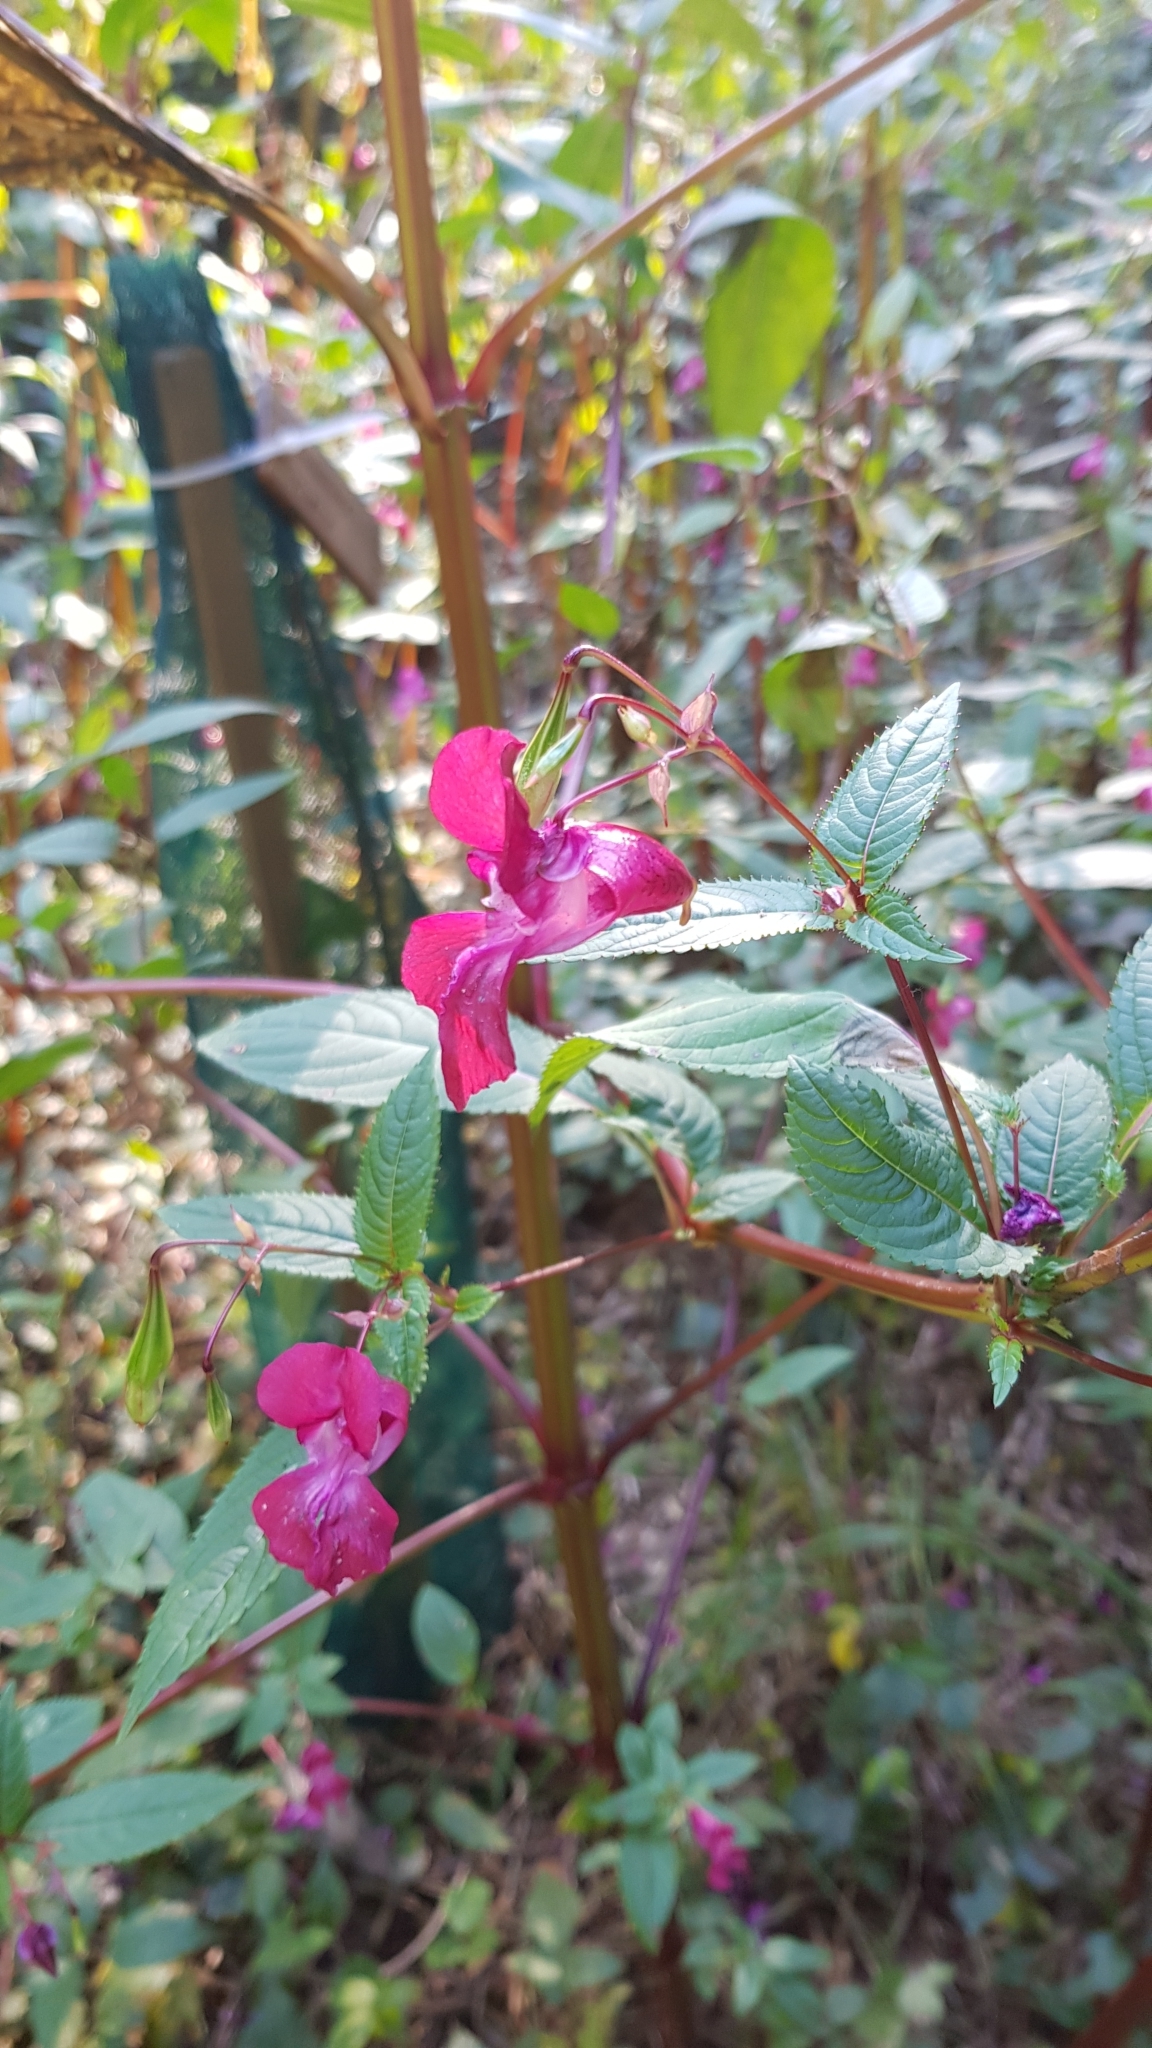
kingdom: Plantae
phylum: Tracheophyta
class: Magnoliopsida
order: Ericales
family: Balsaminaceae
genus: Impatiens
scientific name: Impatiens glandulifera
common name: Himalayan balsam
